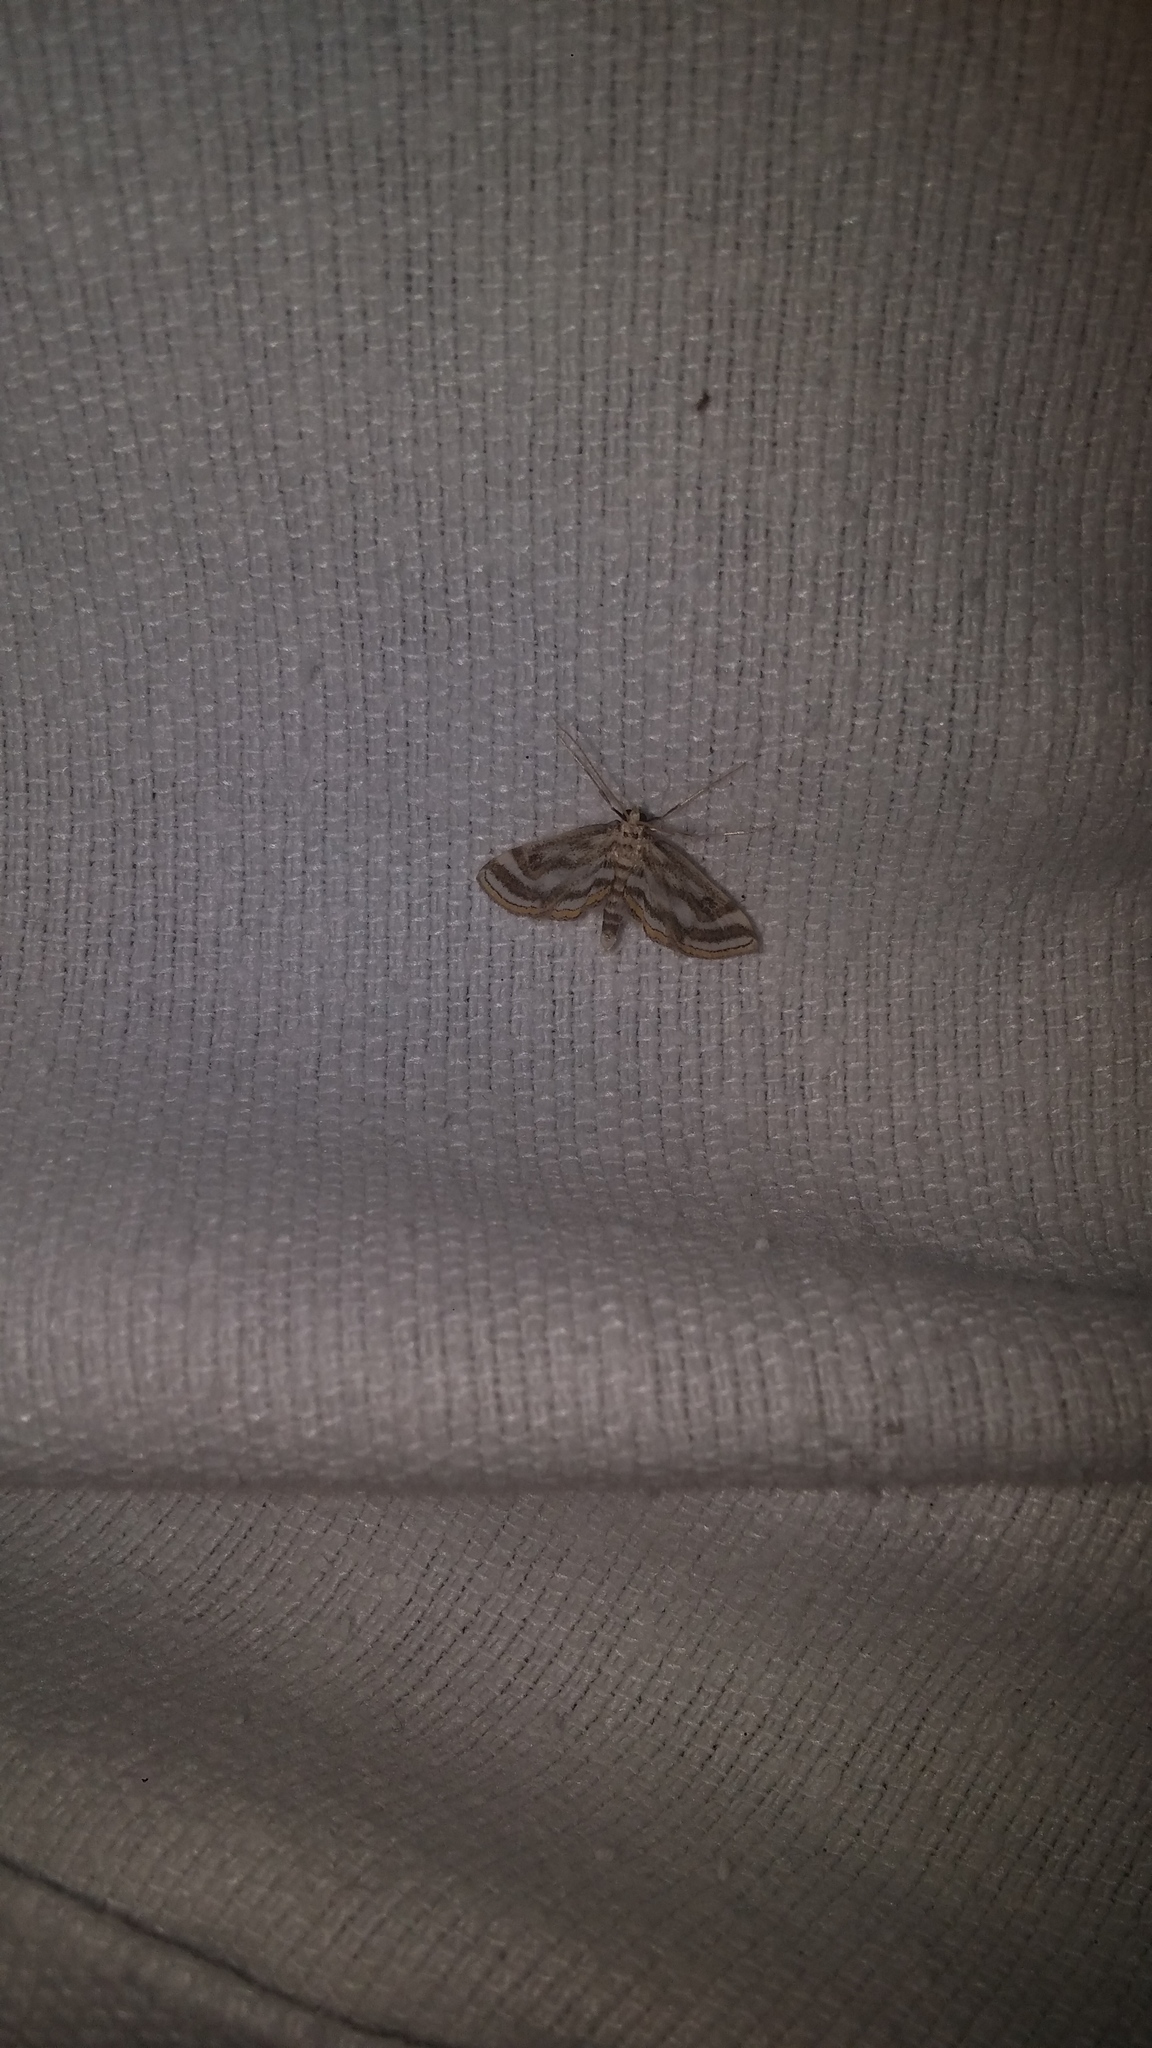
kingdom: Animalia
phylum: Arthropoda
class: Insecta
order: Lepidoptera
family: Crambidae
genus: Parapoynx
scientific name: Parapoynx badiusalis
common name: Chestnut-marked pondweed moth
